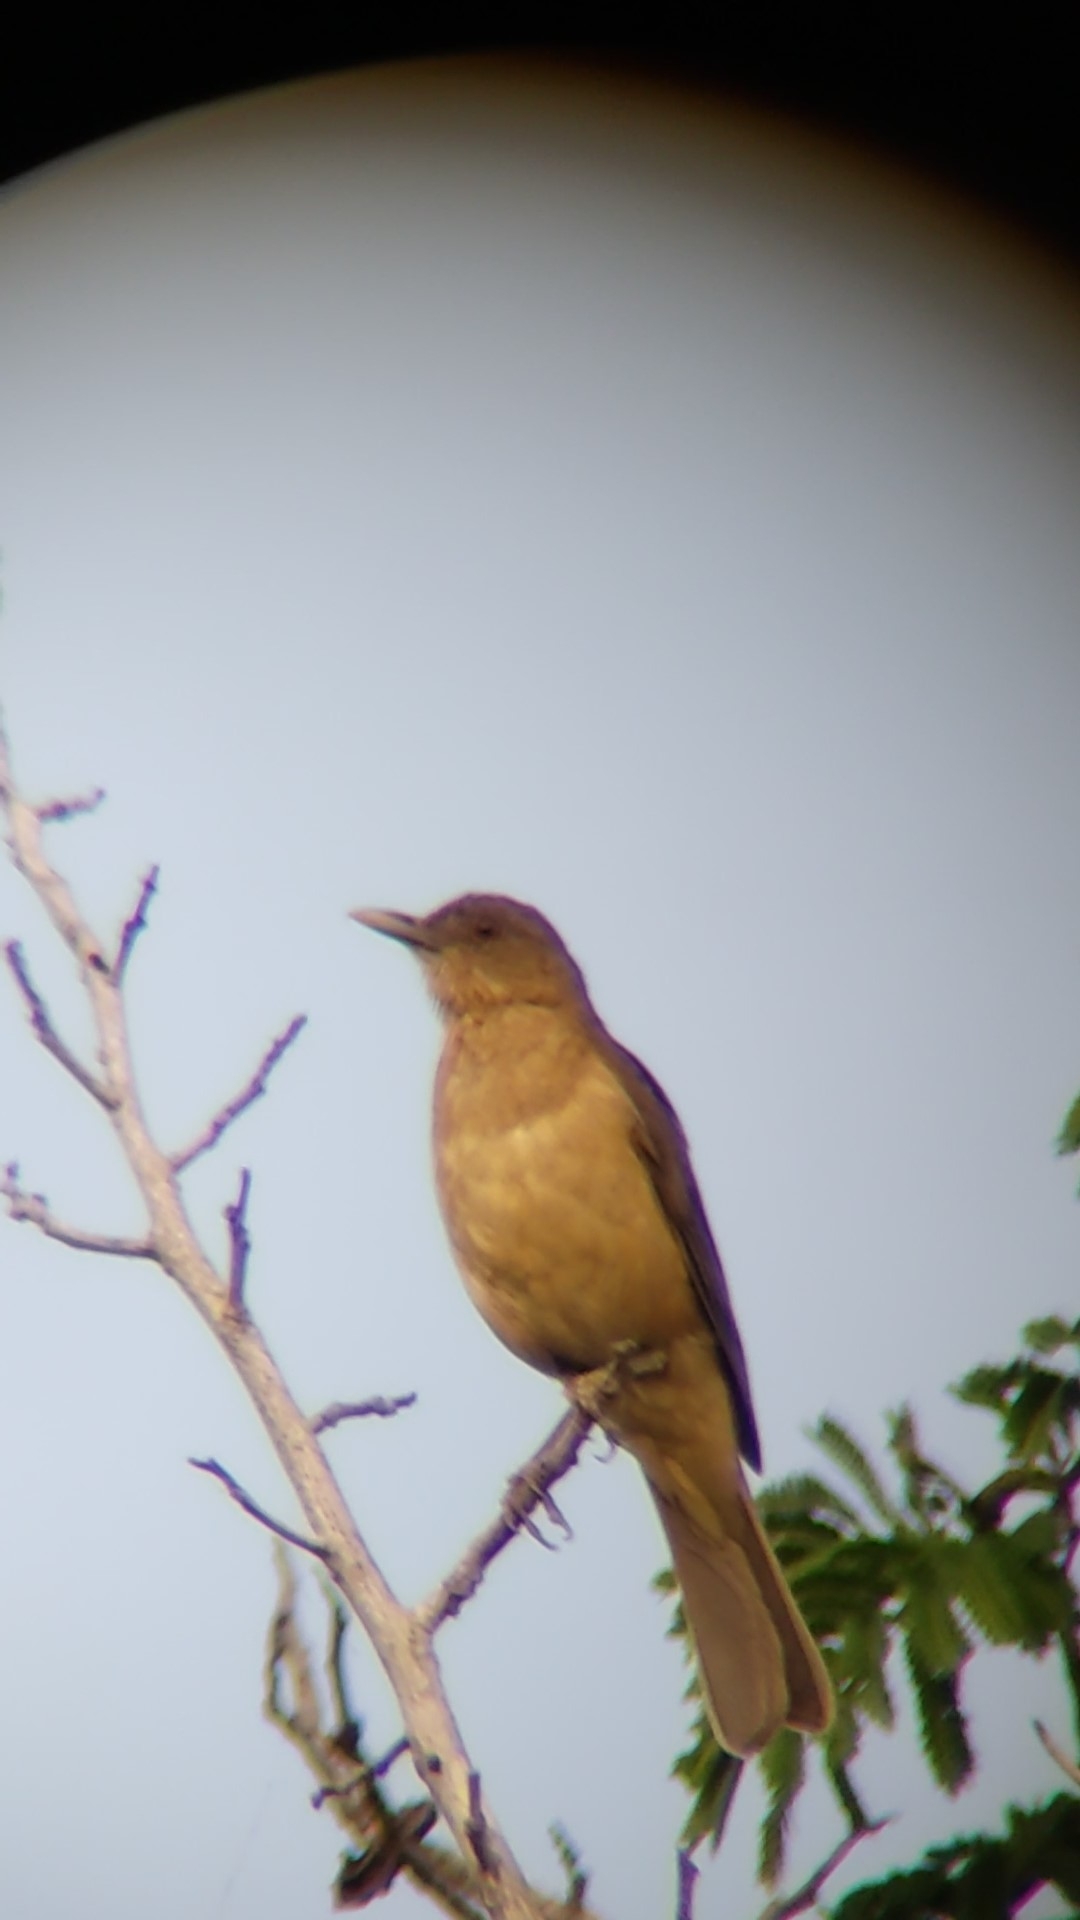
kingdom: Animalia
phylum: Chordata
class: Aves
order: Passeriformes
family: Turdidae
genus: Turdus
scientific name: Turdus grayi
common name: Clay-colored thrush
